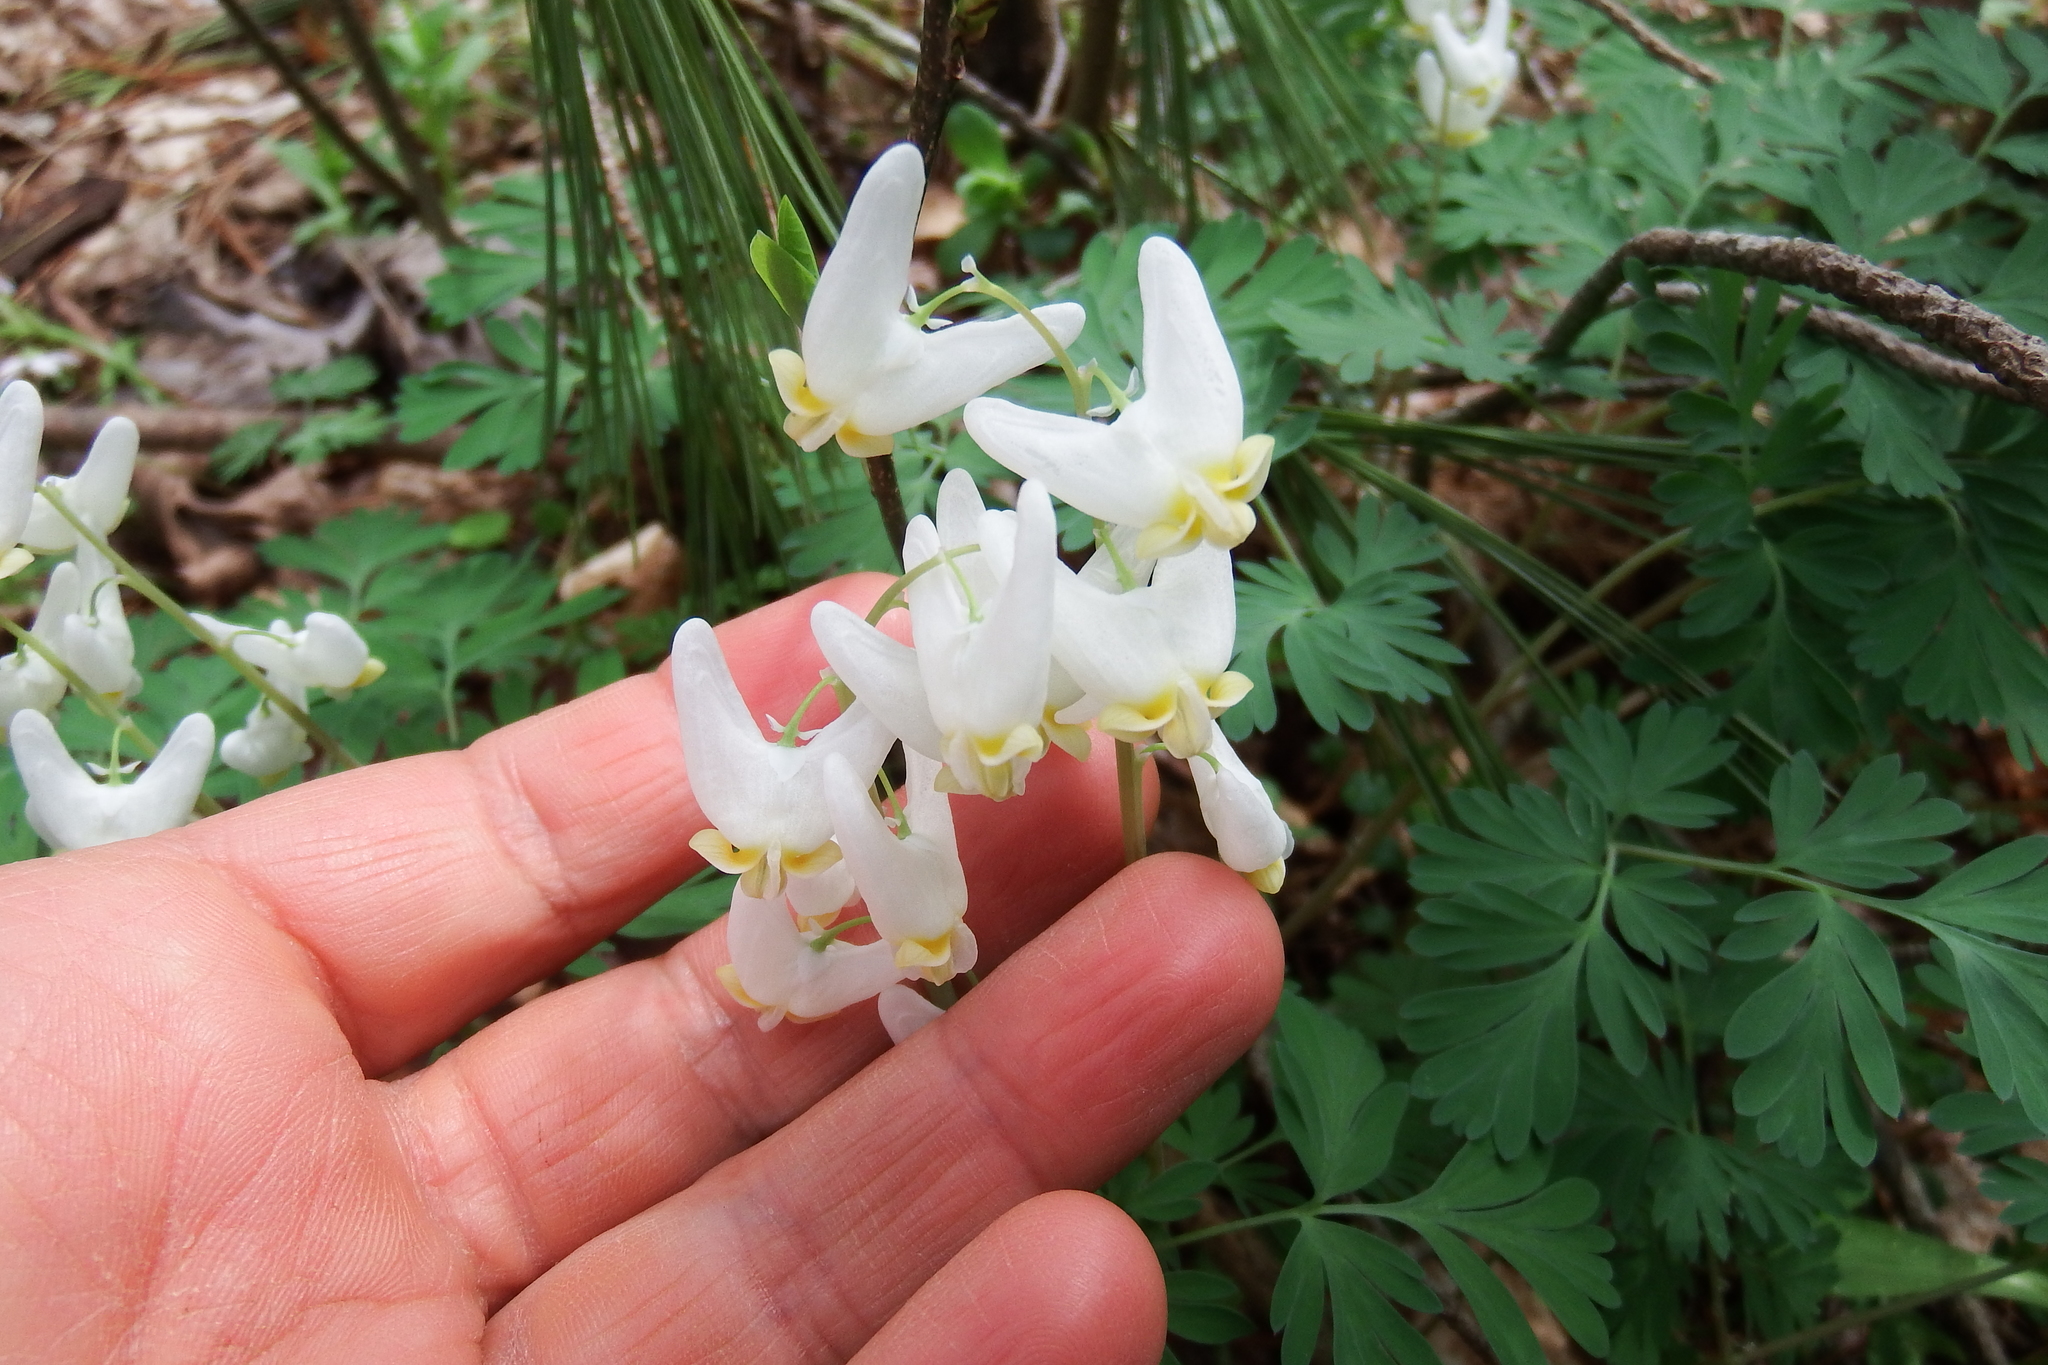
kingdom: Plantae
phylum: Tracheophyta
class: Magnoliopsida
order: Ranunculales
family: Papaveraceae
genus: Dicentra
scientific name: Dicentra cucullaria
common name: Dutchman's breeches
